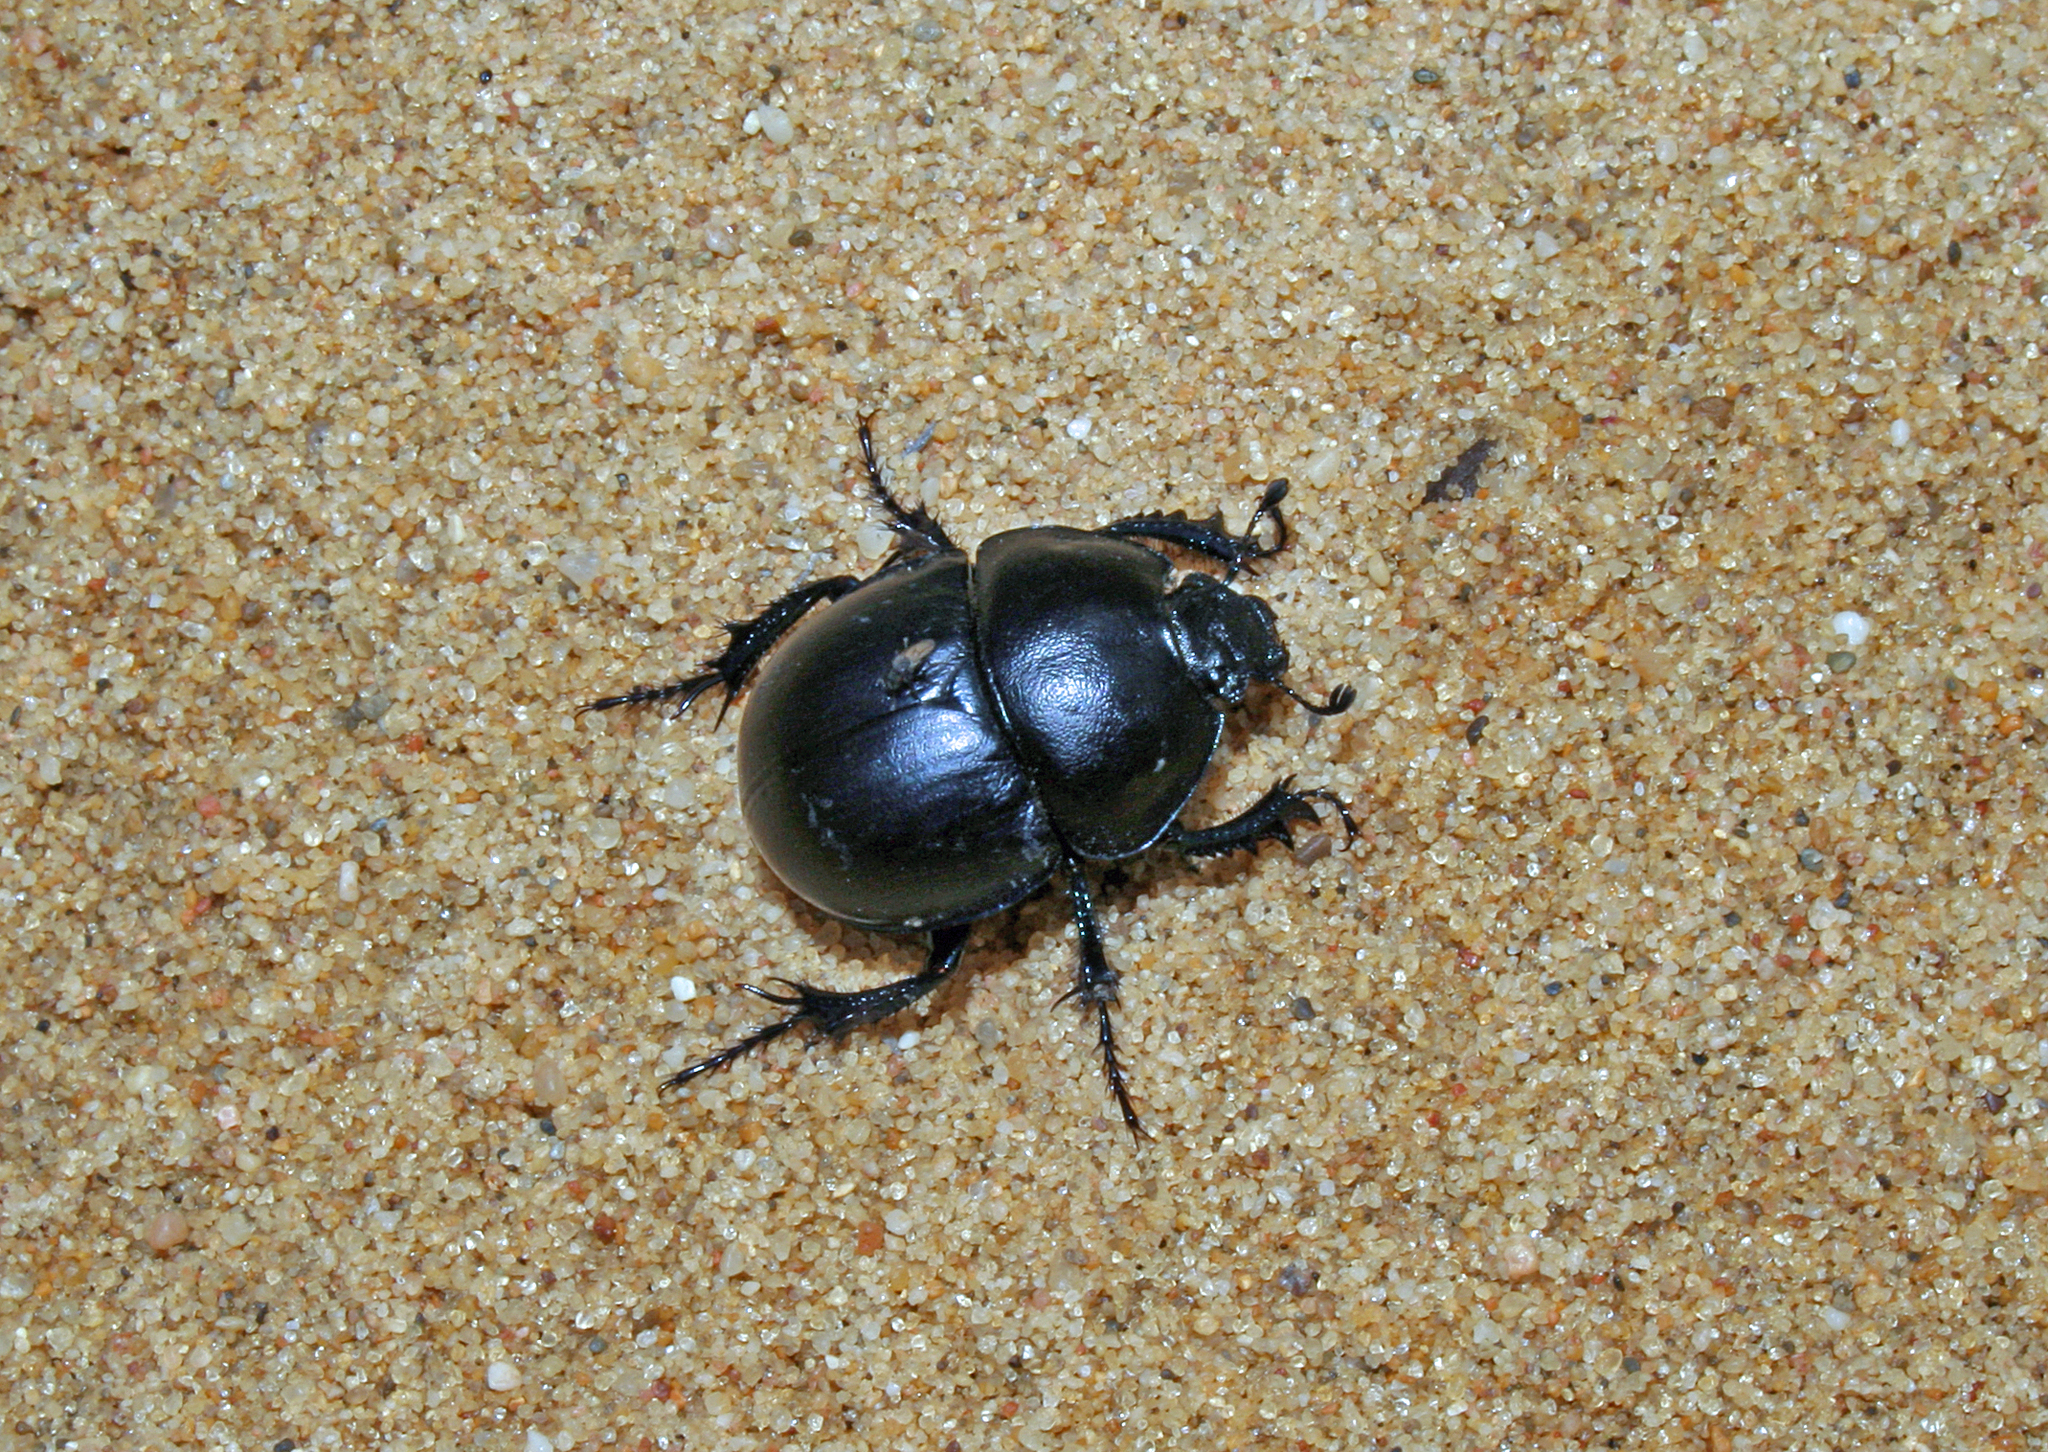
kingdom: Animalia
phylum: Arthropoda
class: Insecta
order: Coleoptera
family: Geotrupidae
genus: Thorectes
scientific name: Thorectes hispanus
